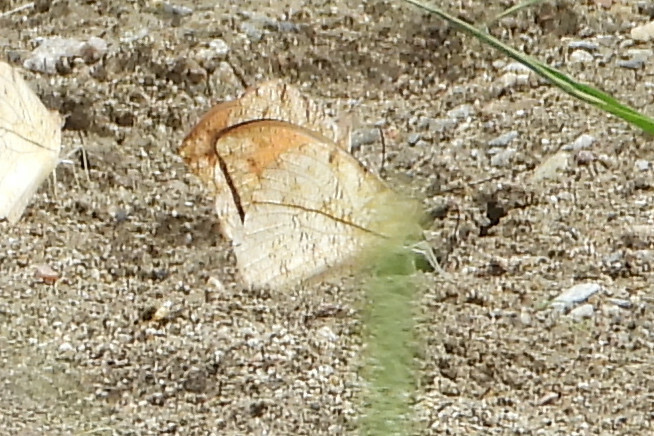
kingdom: Animalia
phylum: Arthropoda
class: Insecta
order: Lepidoptera
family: Pieridae
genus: Hebomoia
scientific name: Hebomoia glaucippe
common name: Great orange tip
